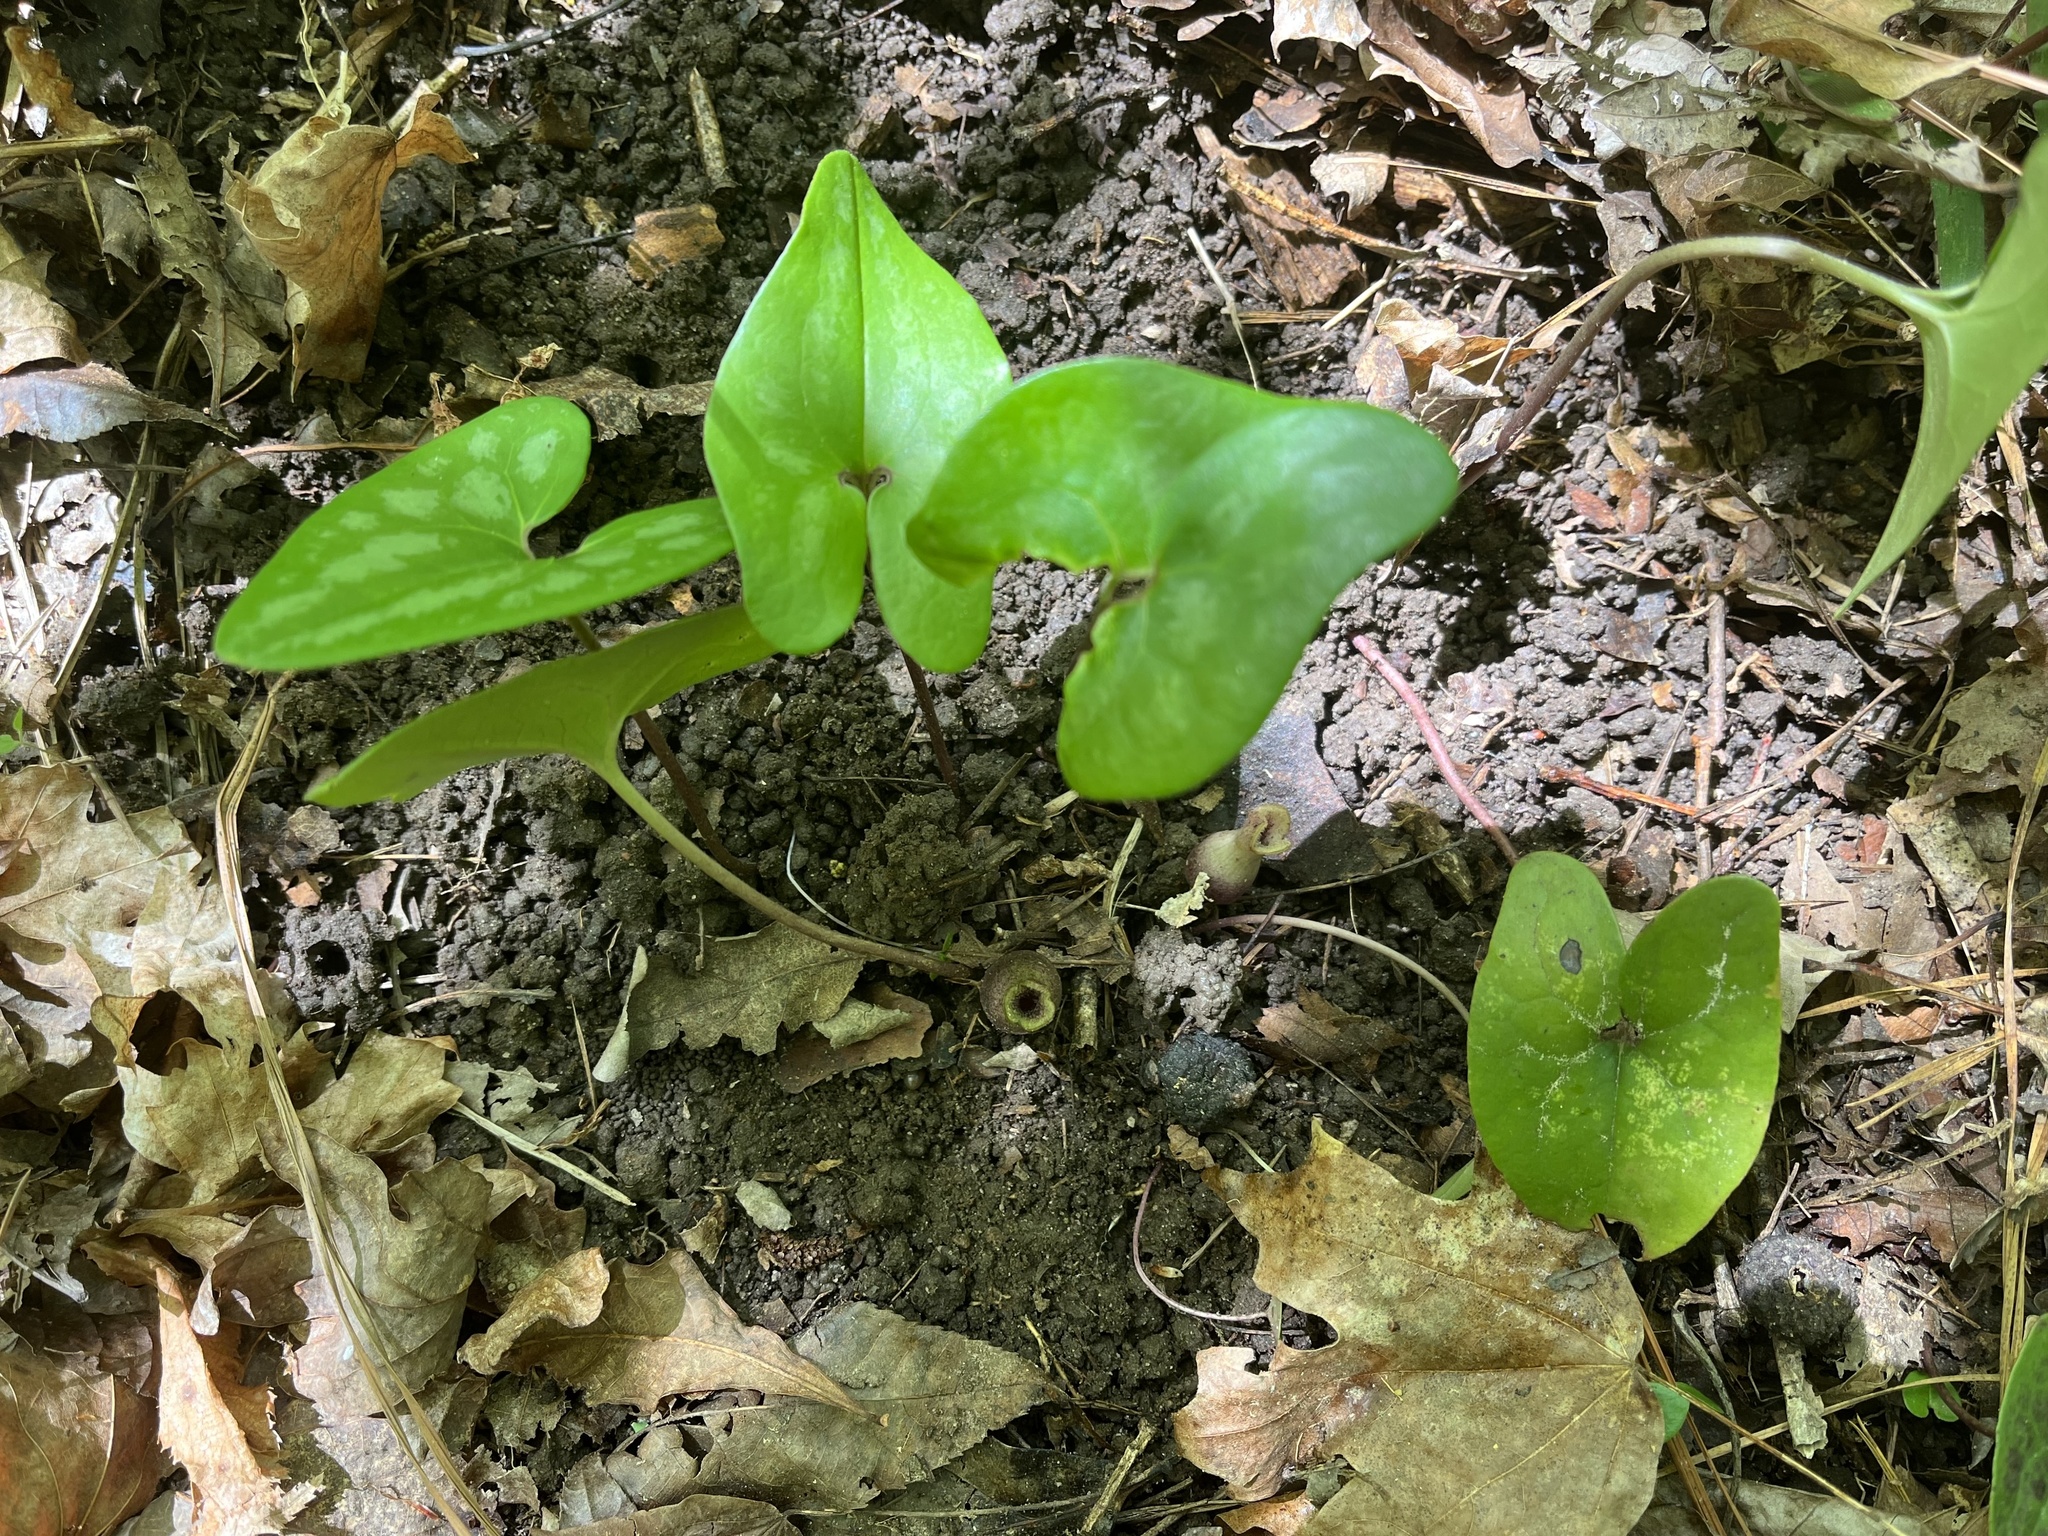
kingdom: Plantae
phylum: Tracheophyta
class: Magnoliopsida
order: Piperales
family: Aristolochiaceae
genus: Hexastylis
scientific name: Hexastylis arifolia
